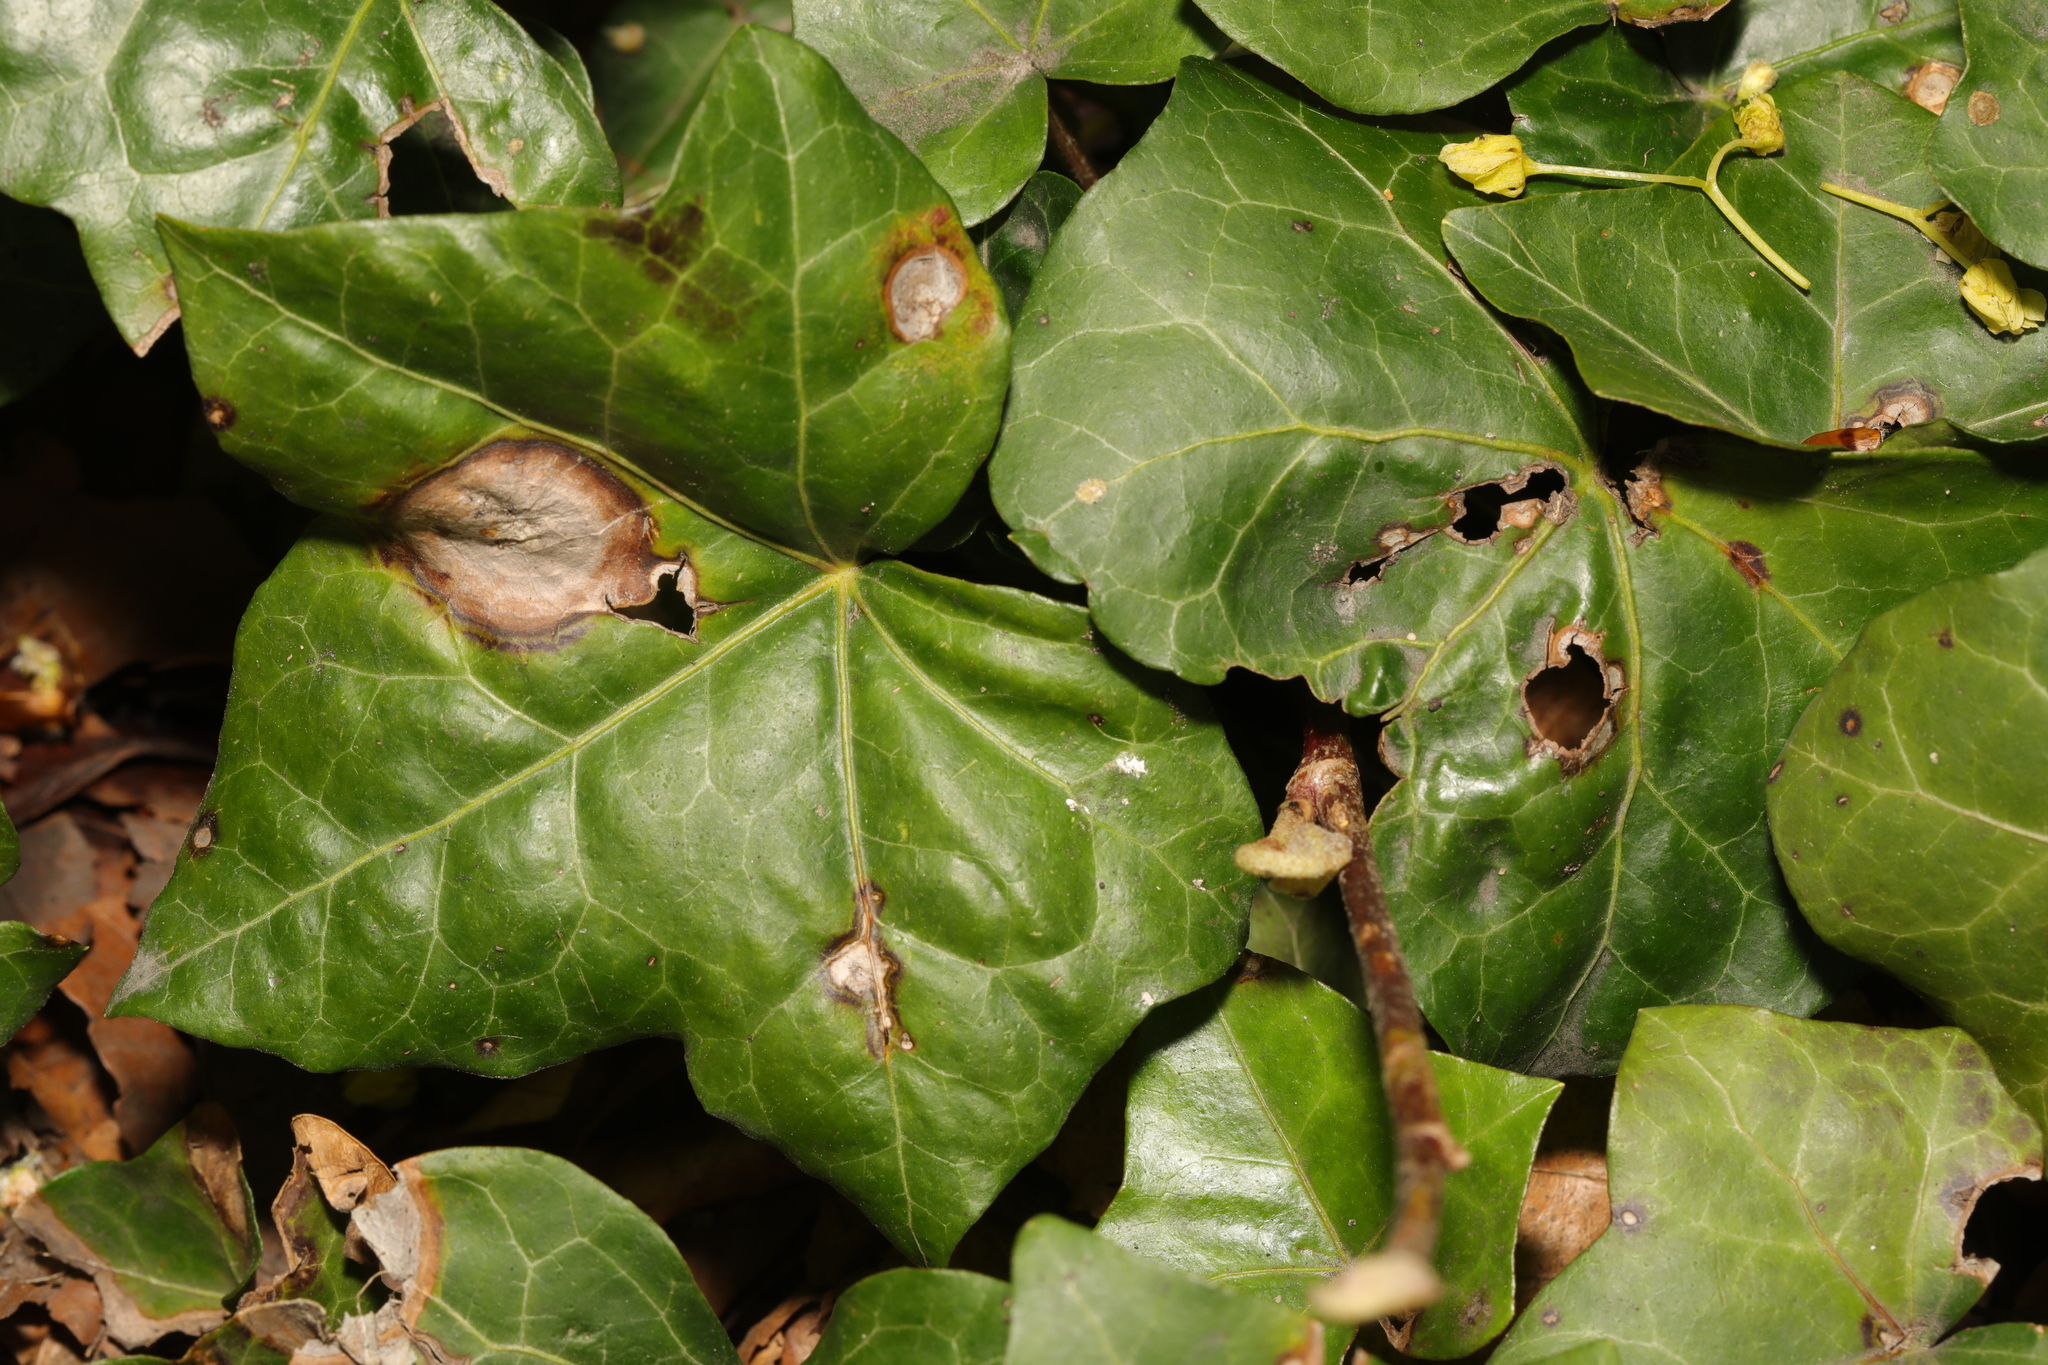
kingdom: Fungi
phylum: Ascomycota
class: Dothideomycetes
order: Pleosporales
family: Didymellaceae
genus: Boeremia
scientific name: Boeremia hedericola
